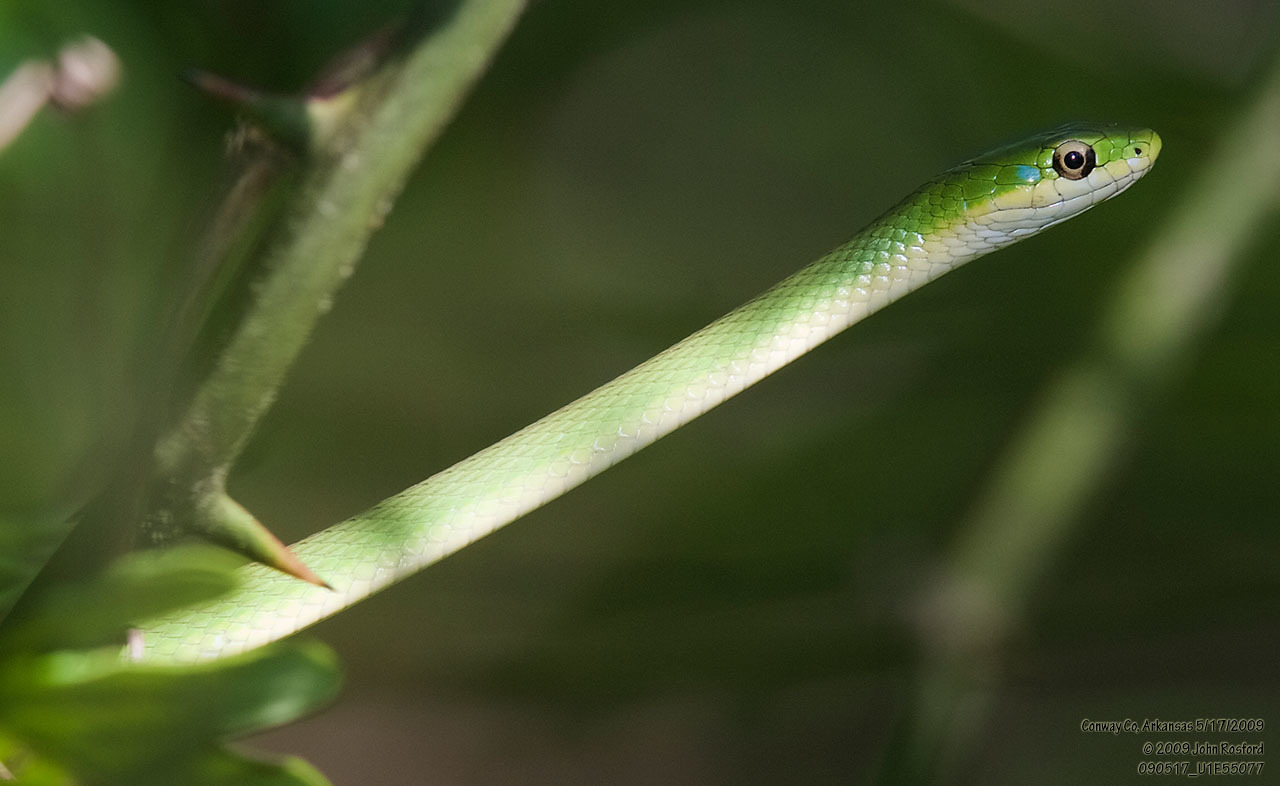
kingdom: Animalia
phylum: Chordata
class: Squamata
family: Colubridae
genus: Opheodrys
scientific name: Opheodrys aestivus
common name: Rough greensnake
